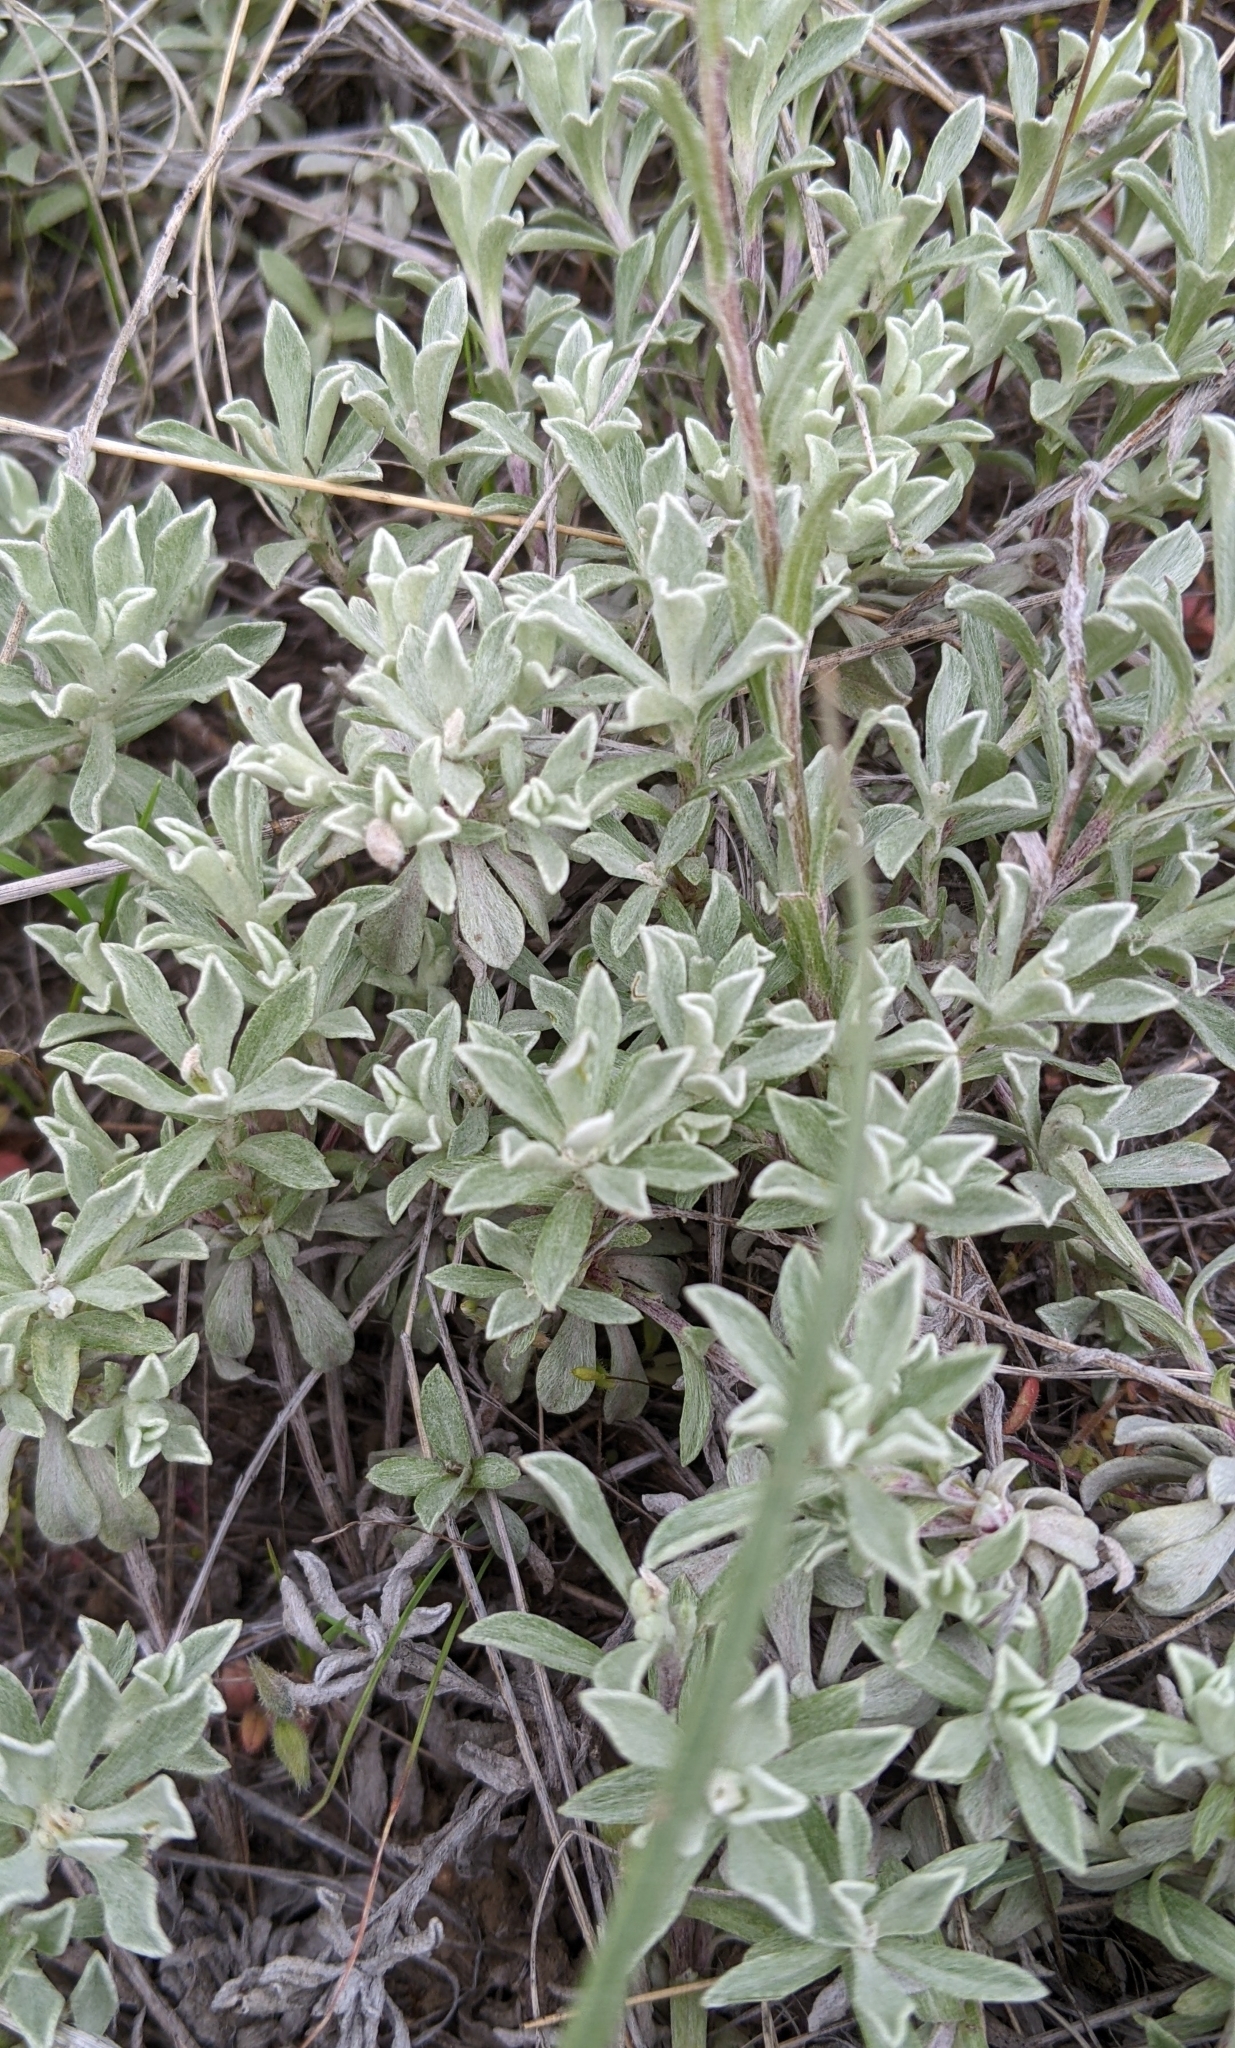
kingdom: Plantae
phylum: Tracheophyta
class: Magnoliopsida
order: Asterales
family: Asteraceae
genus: Antennaria
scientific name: Antennaria umbrinella
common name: Brown pussytoes
